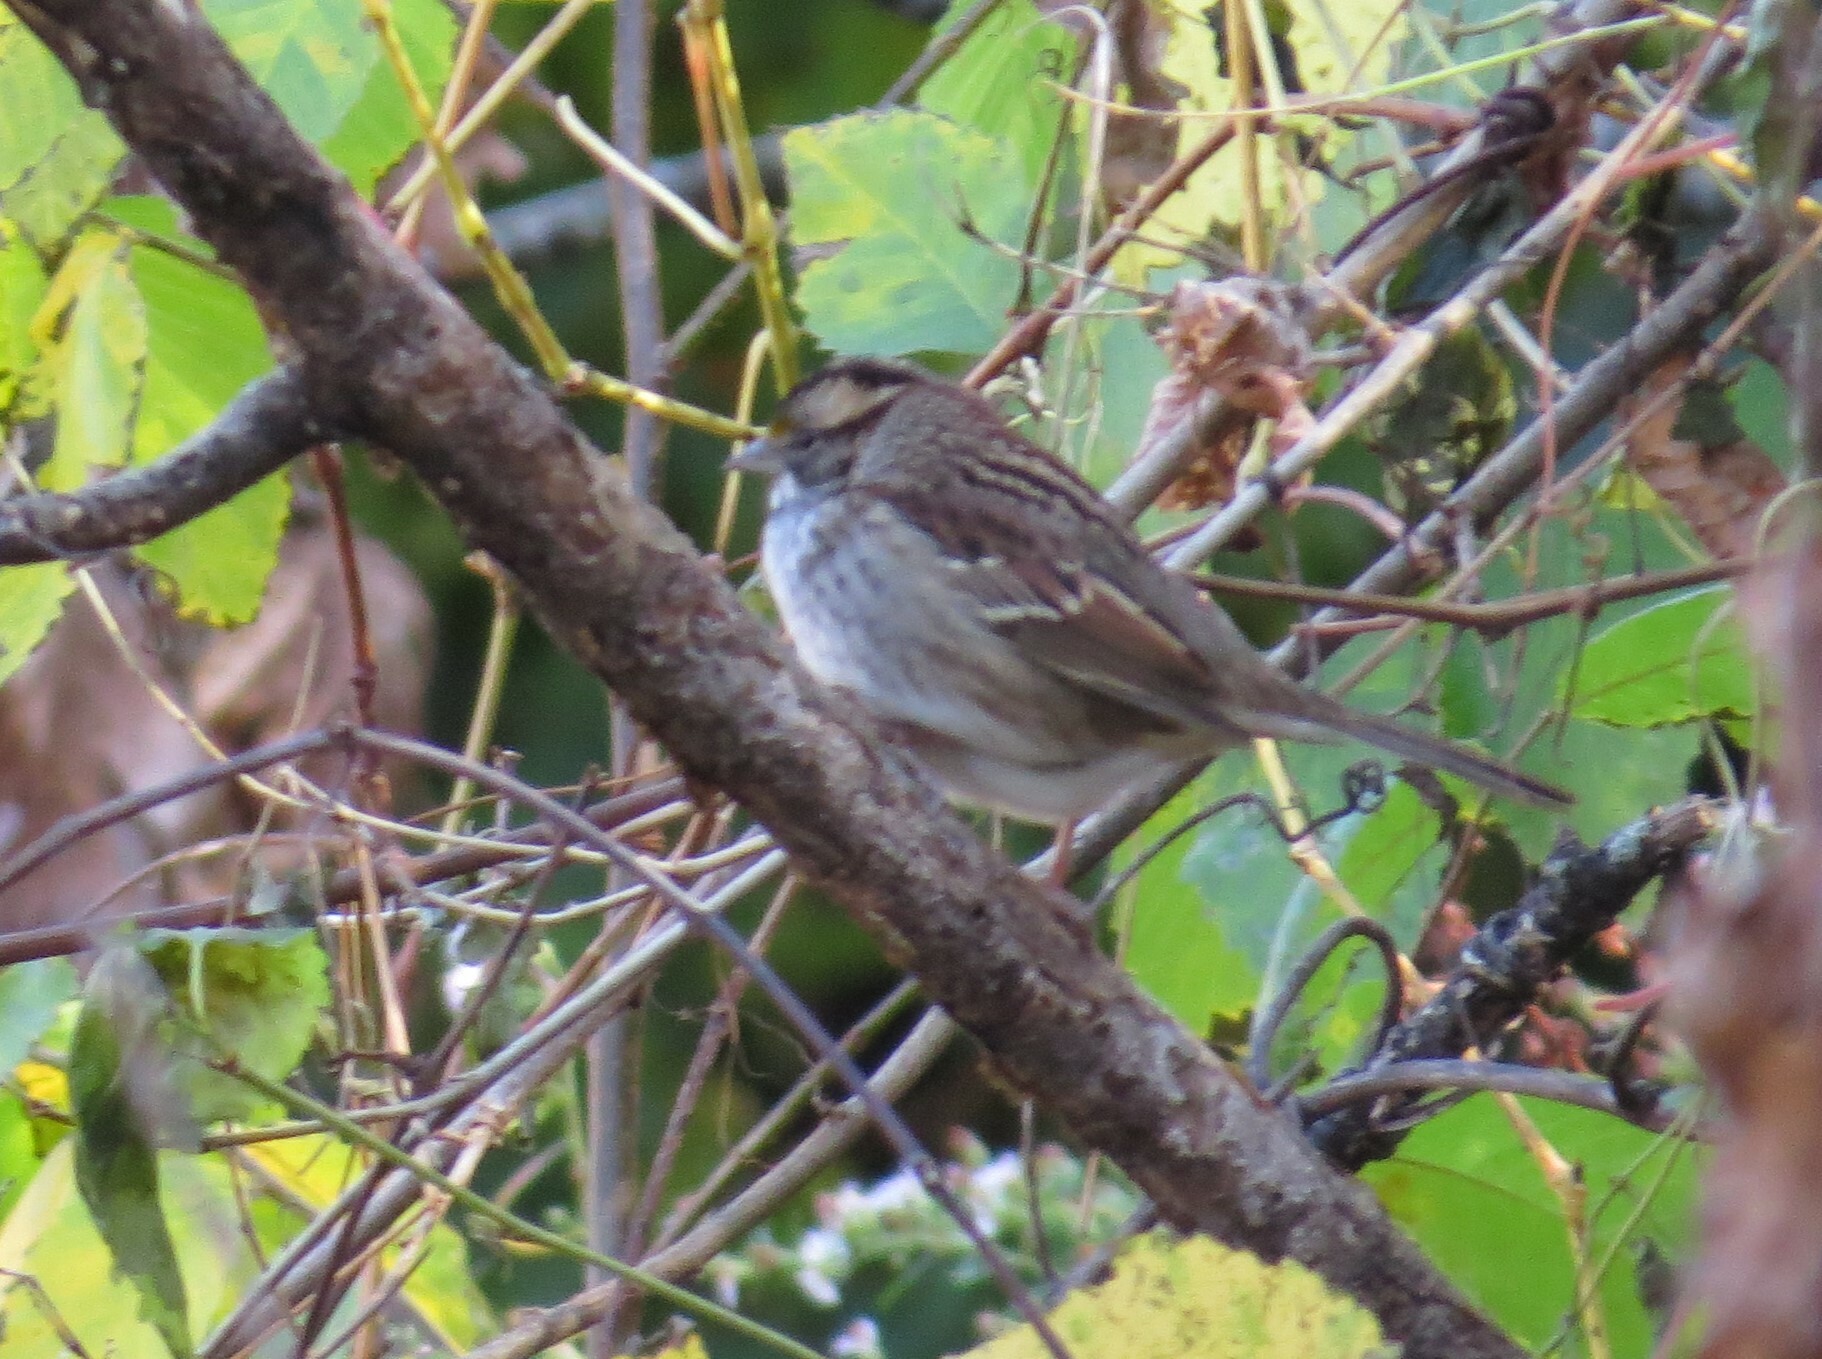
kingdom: Animalia
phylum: Chordata
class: Aves
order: Passeriformes
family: Passerellidae
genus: Zonotrichia
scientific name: Zonotrichia albicollis
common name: White-throated sparrow
